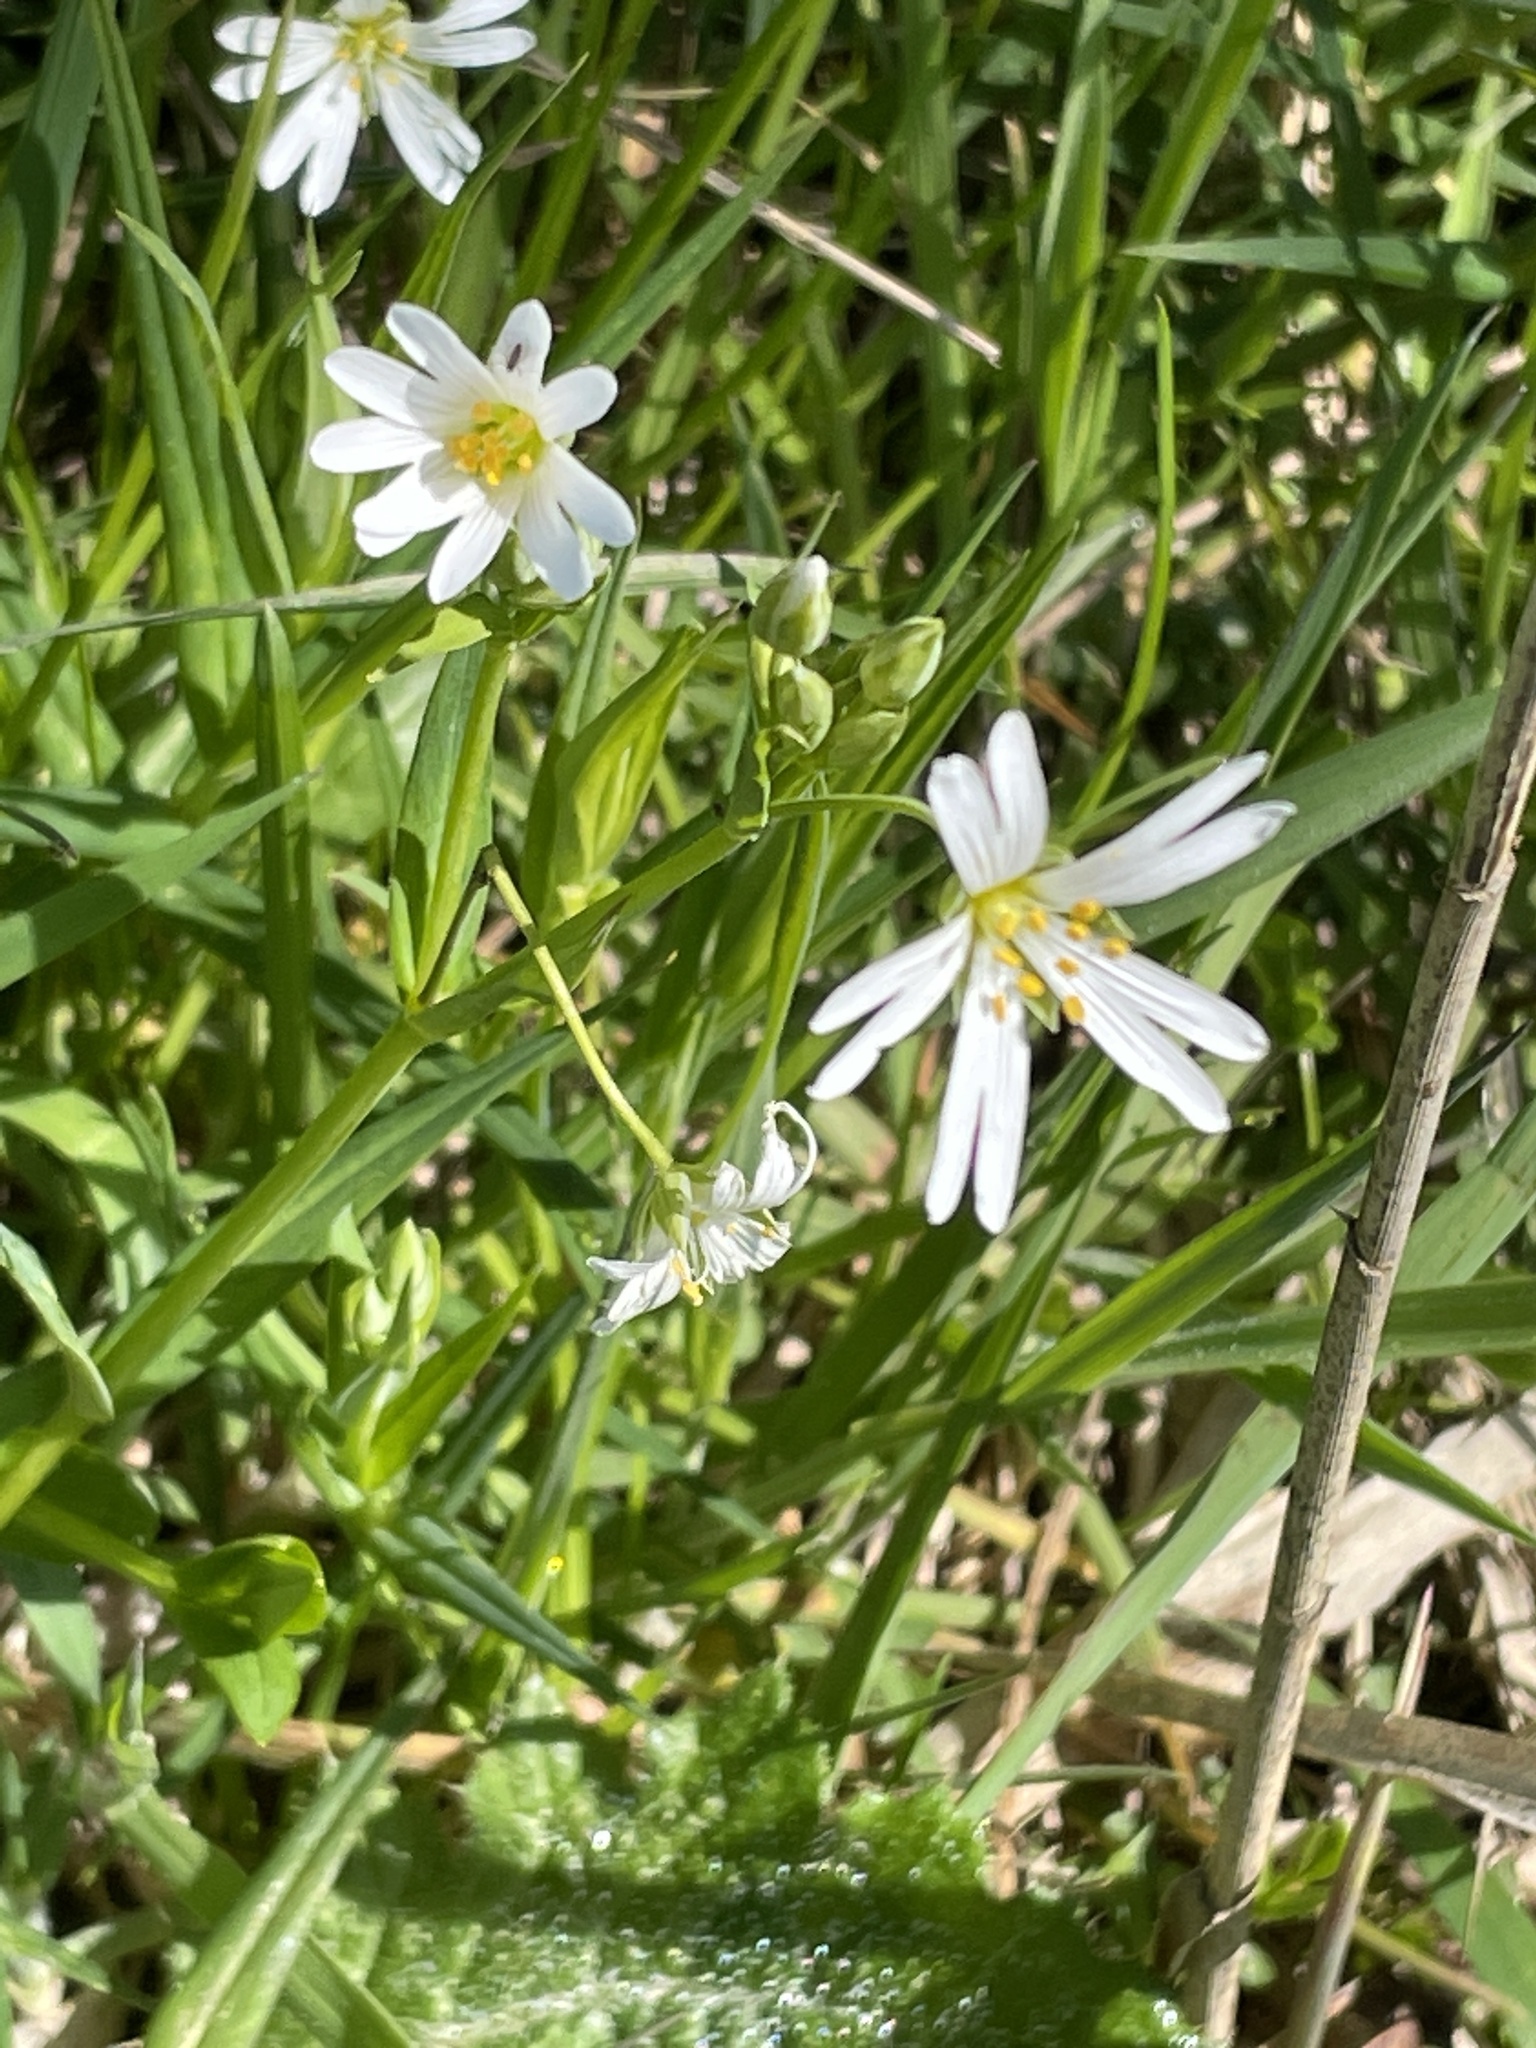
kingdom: Plantae
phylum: Tracheophyta
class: Magnoliopsida
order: Caryophyllales
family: Caryophyllaceae
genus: Rabelera
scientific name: Rabelera holostea
